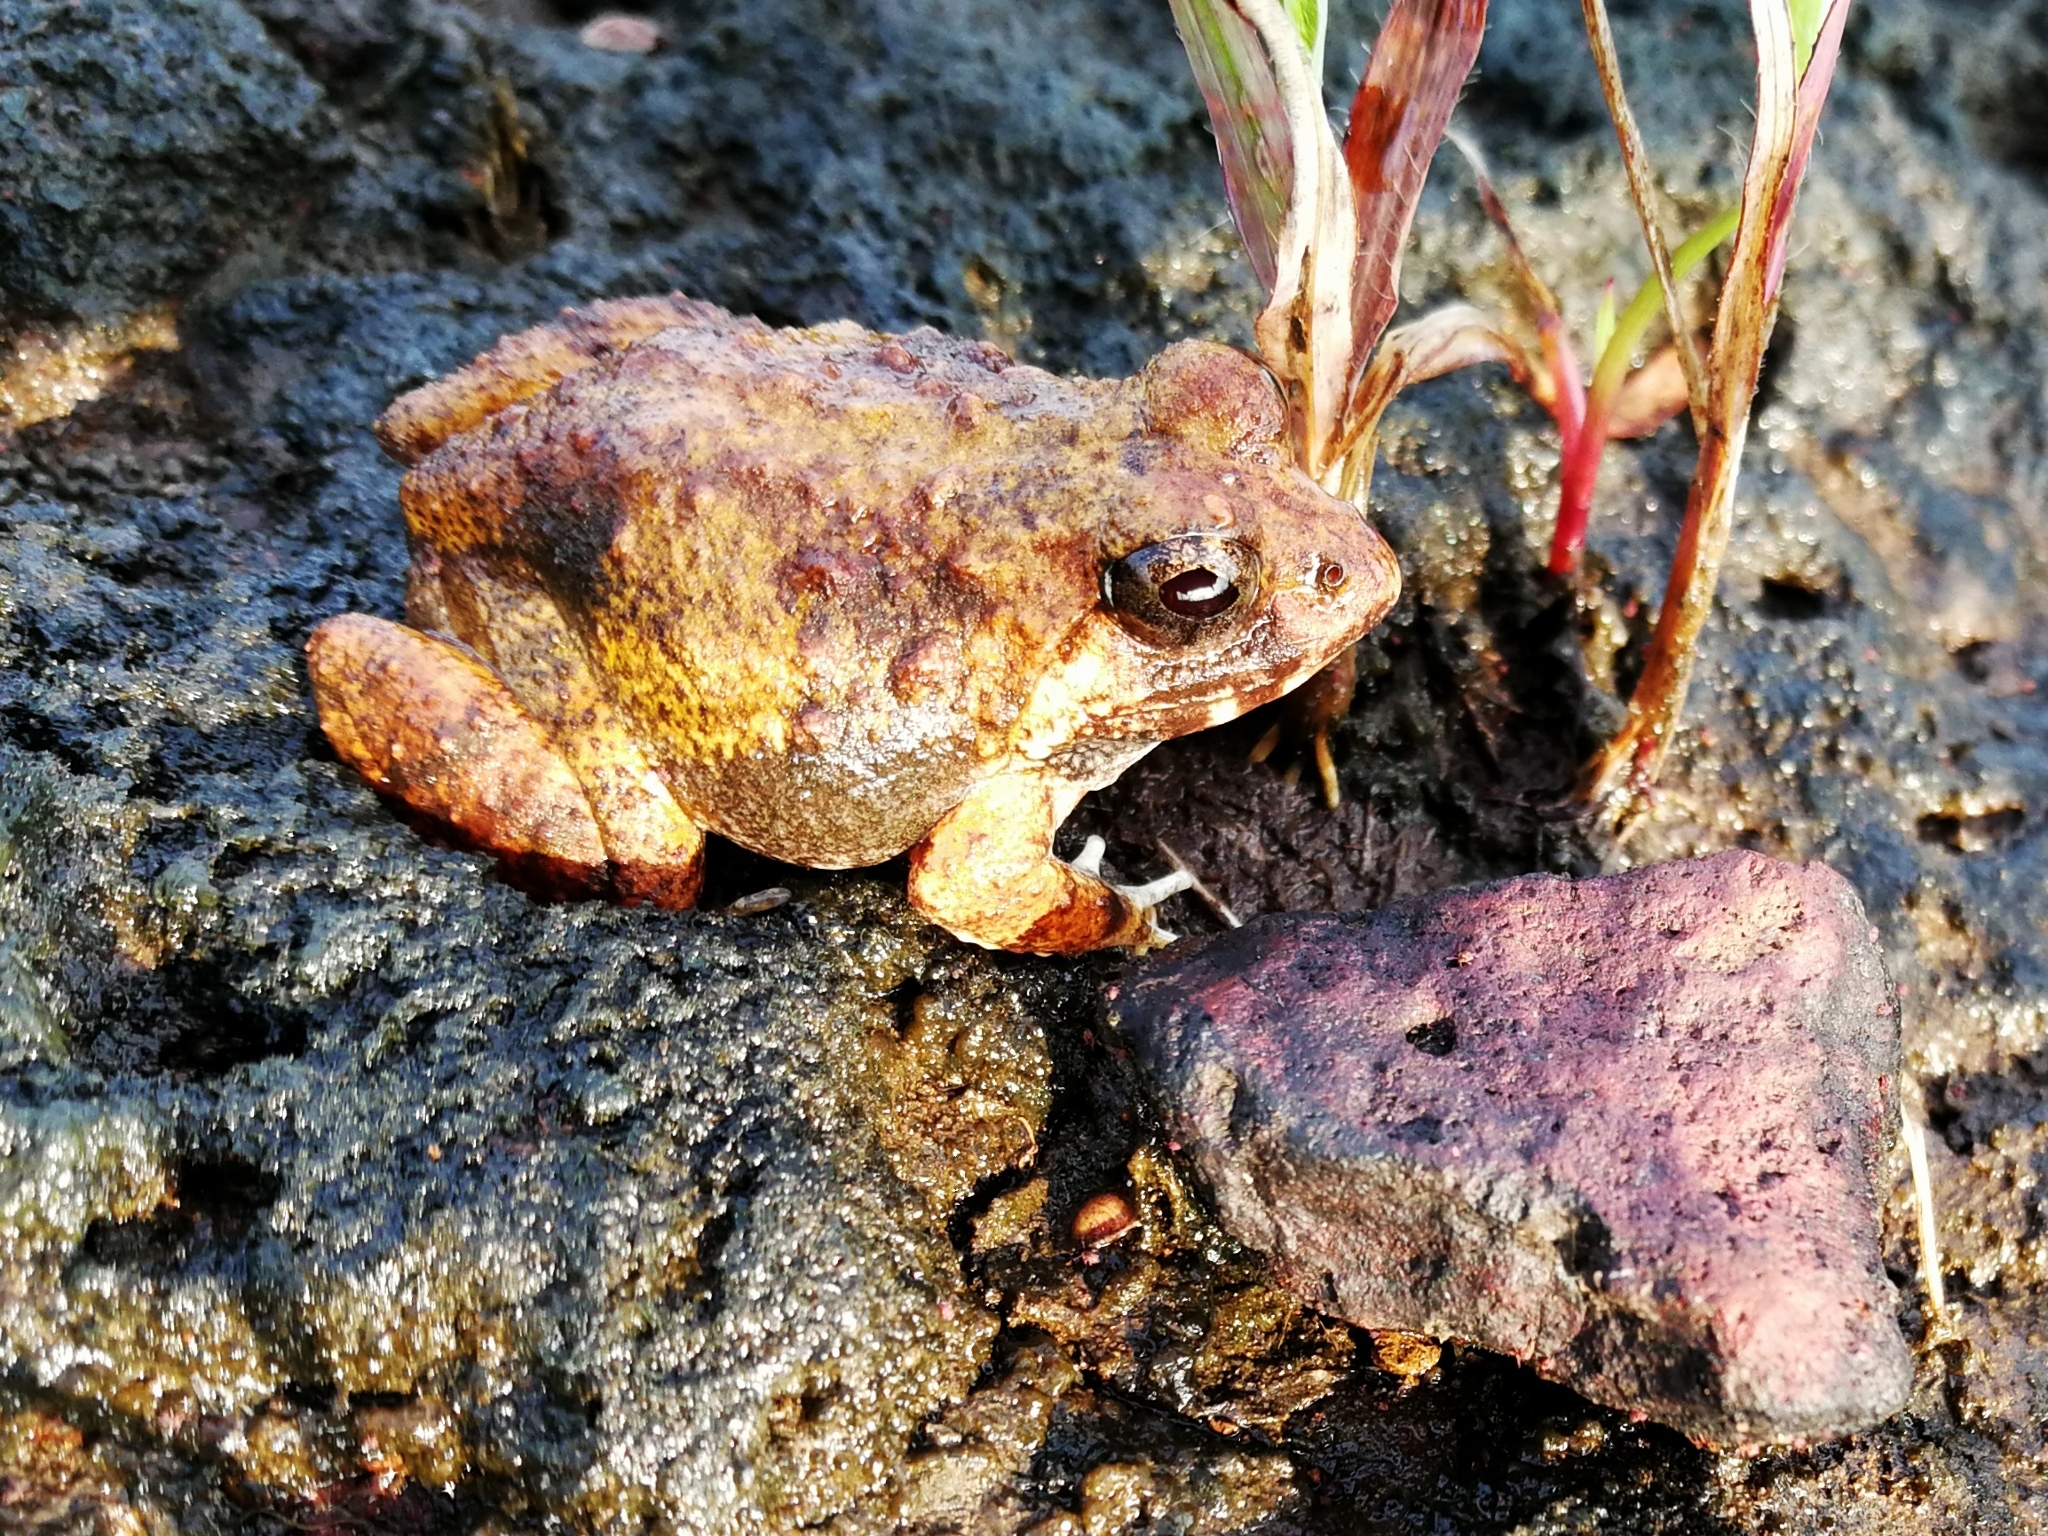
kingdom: Animalia
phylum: Chordata
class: Amphibia
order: Anura
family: Dicroglossidae
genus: Minervarya
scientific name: Minervarya rufescens
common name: Malabar wart frog
